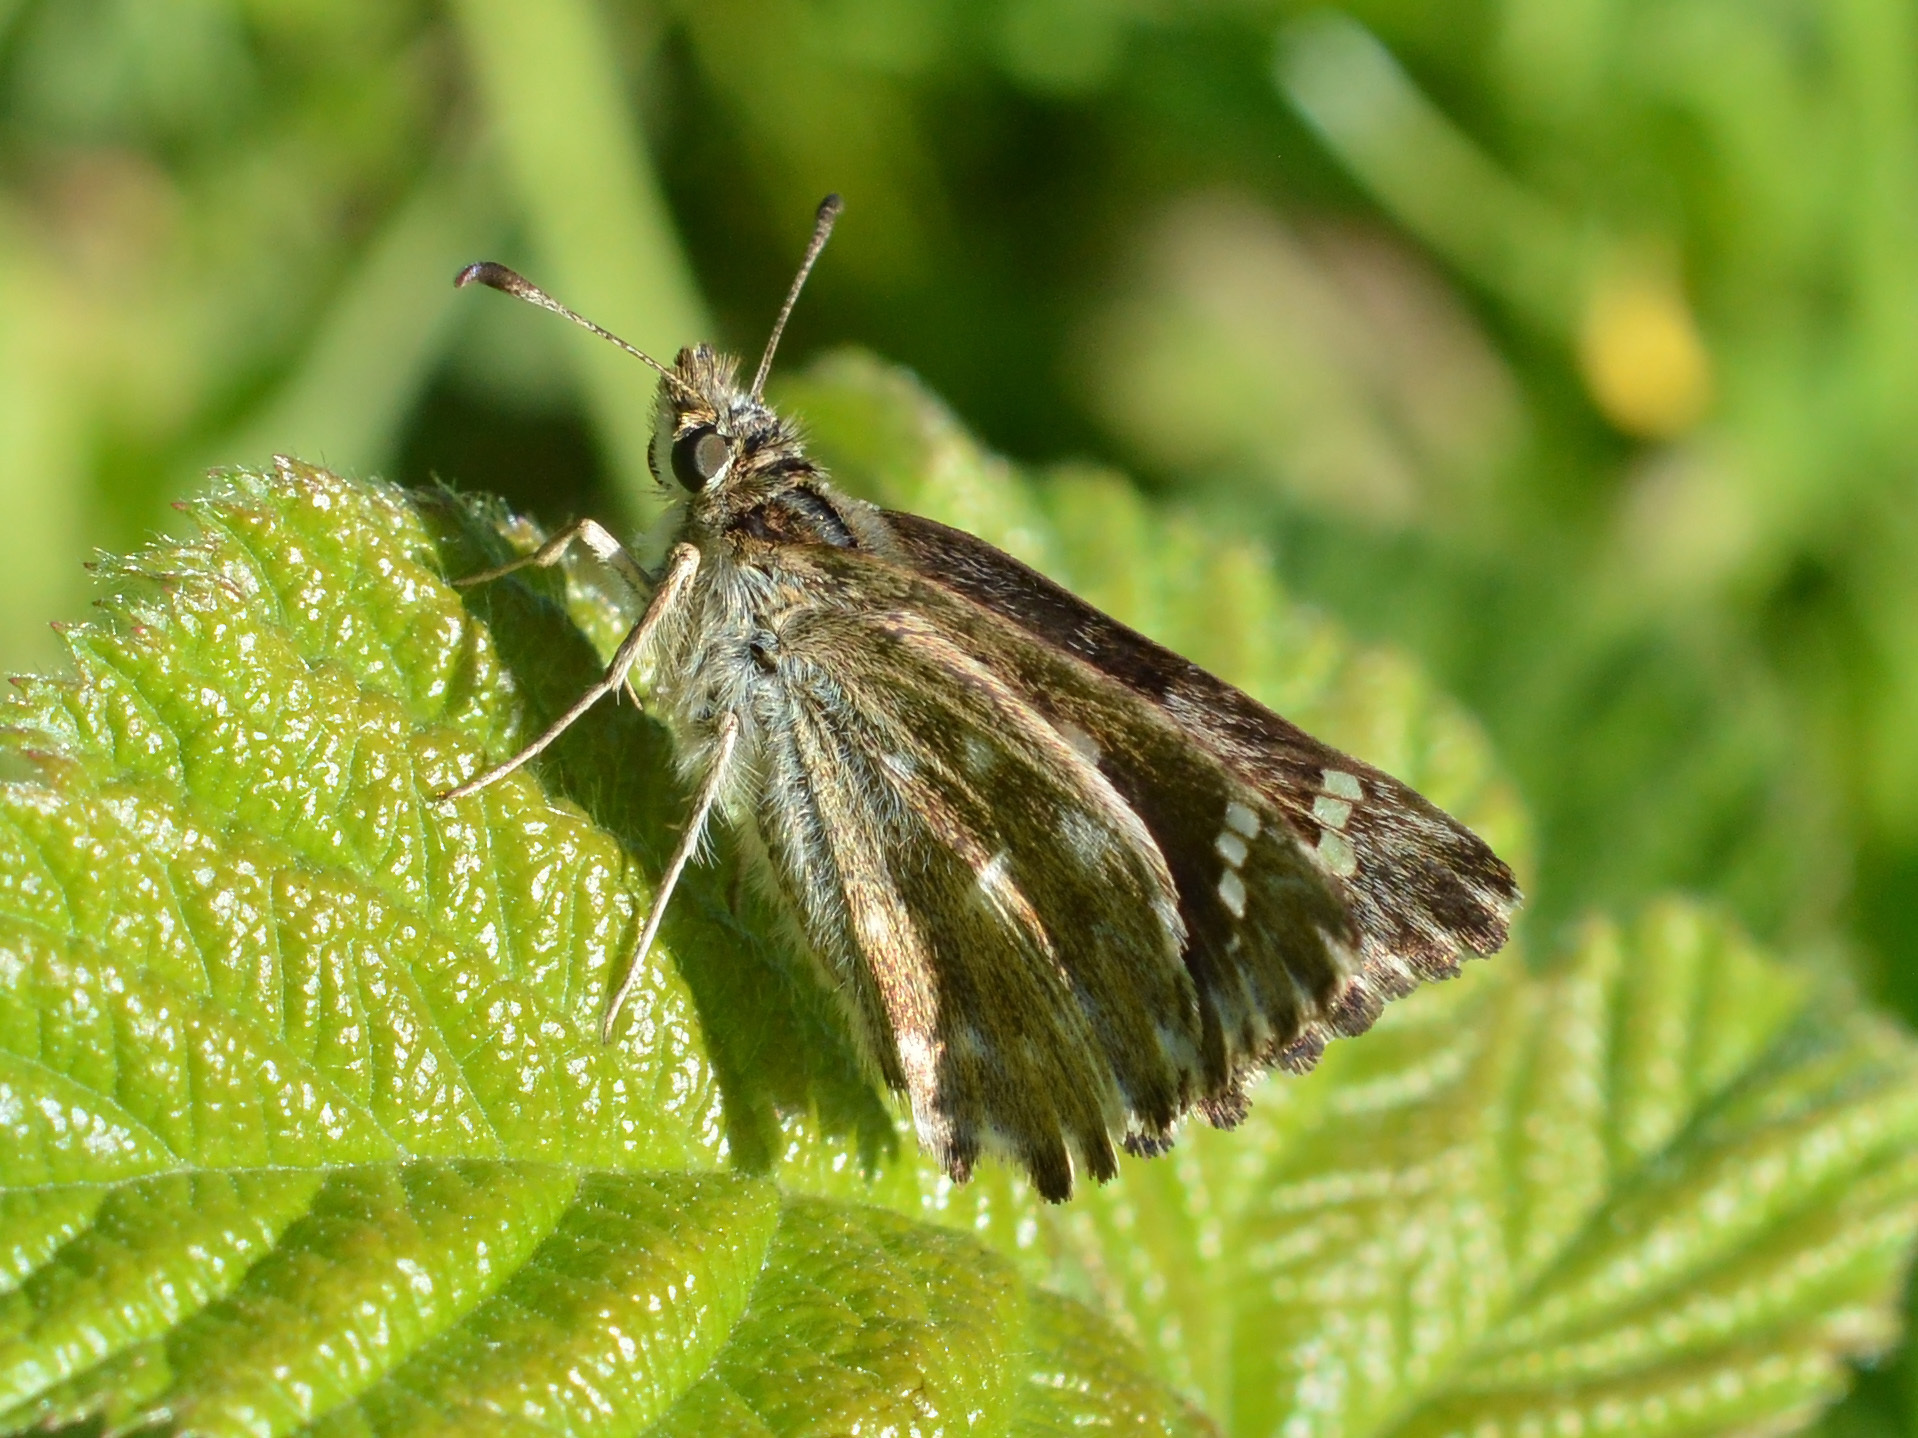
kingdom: Animalia
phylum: Arthropoda
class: Insecta
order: Lepidoptera
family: Hesperiidae
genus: Carcharodus
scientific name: Carcharodus alceae
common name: Mallow skipper
